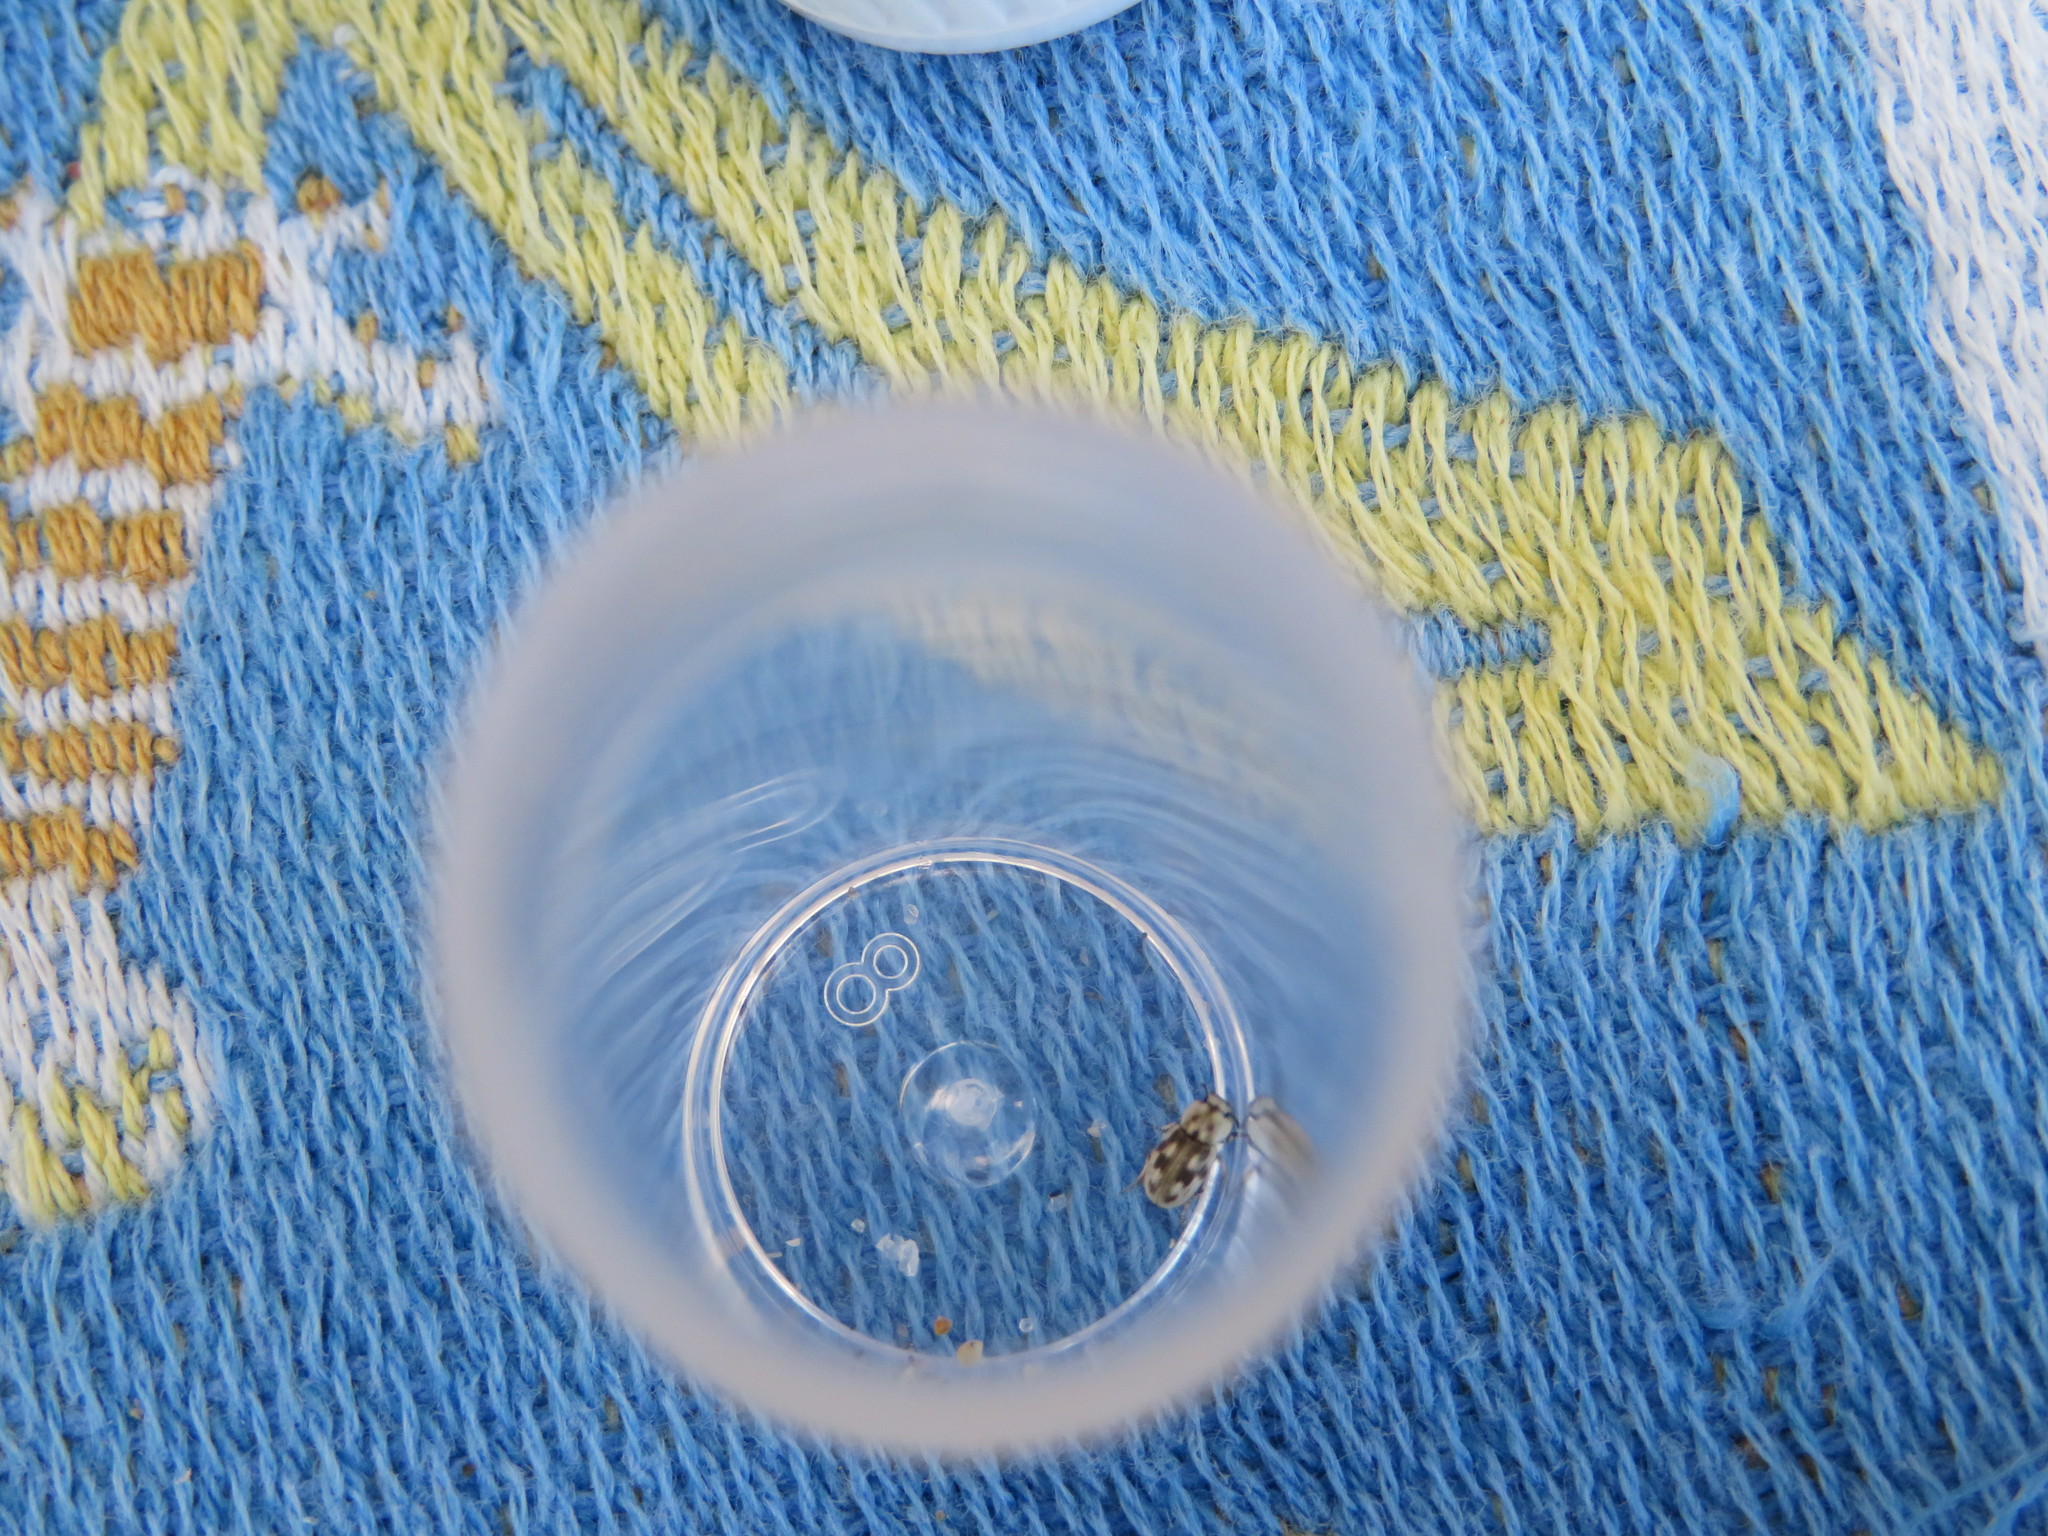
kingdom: Animalia
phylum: Arthropoda
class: Insecta
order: Coleoptera
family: Tenebrionidae
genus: Actizeta
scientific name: Actizeta
